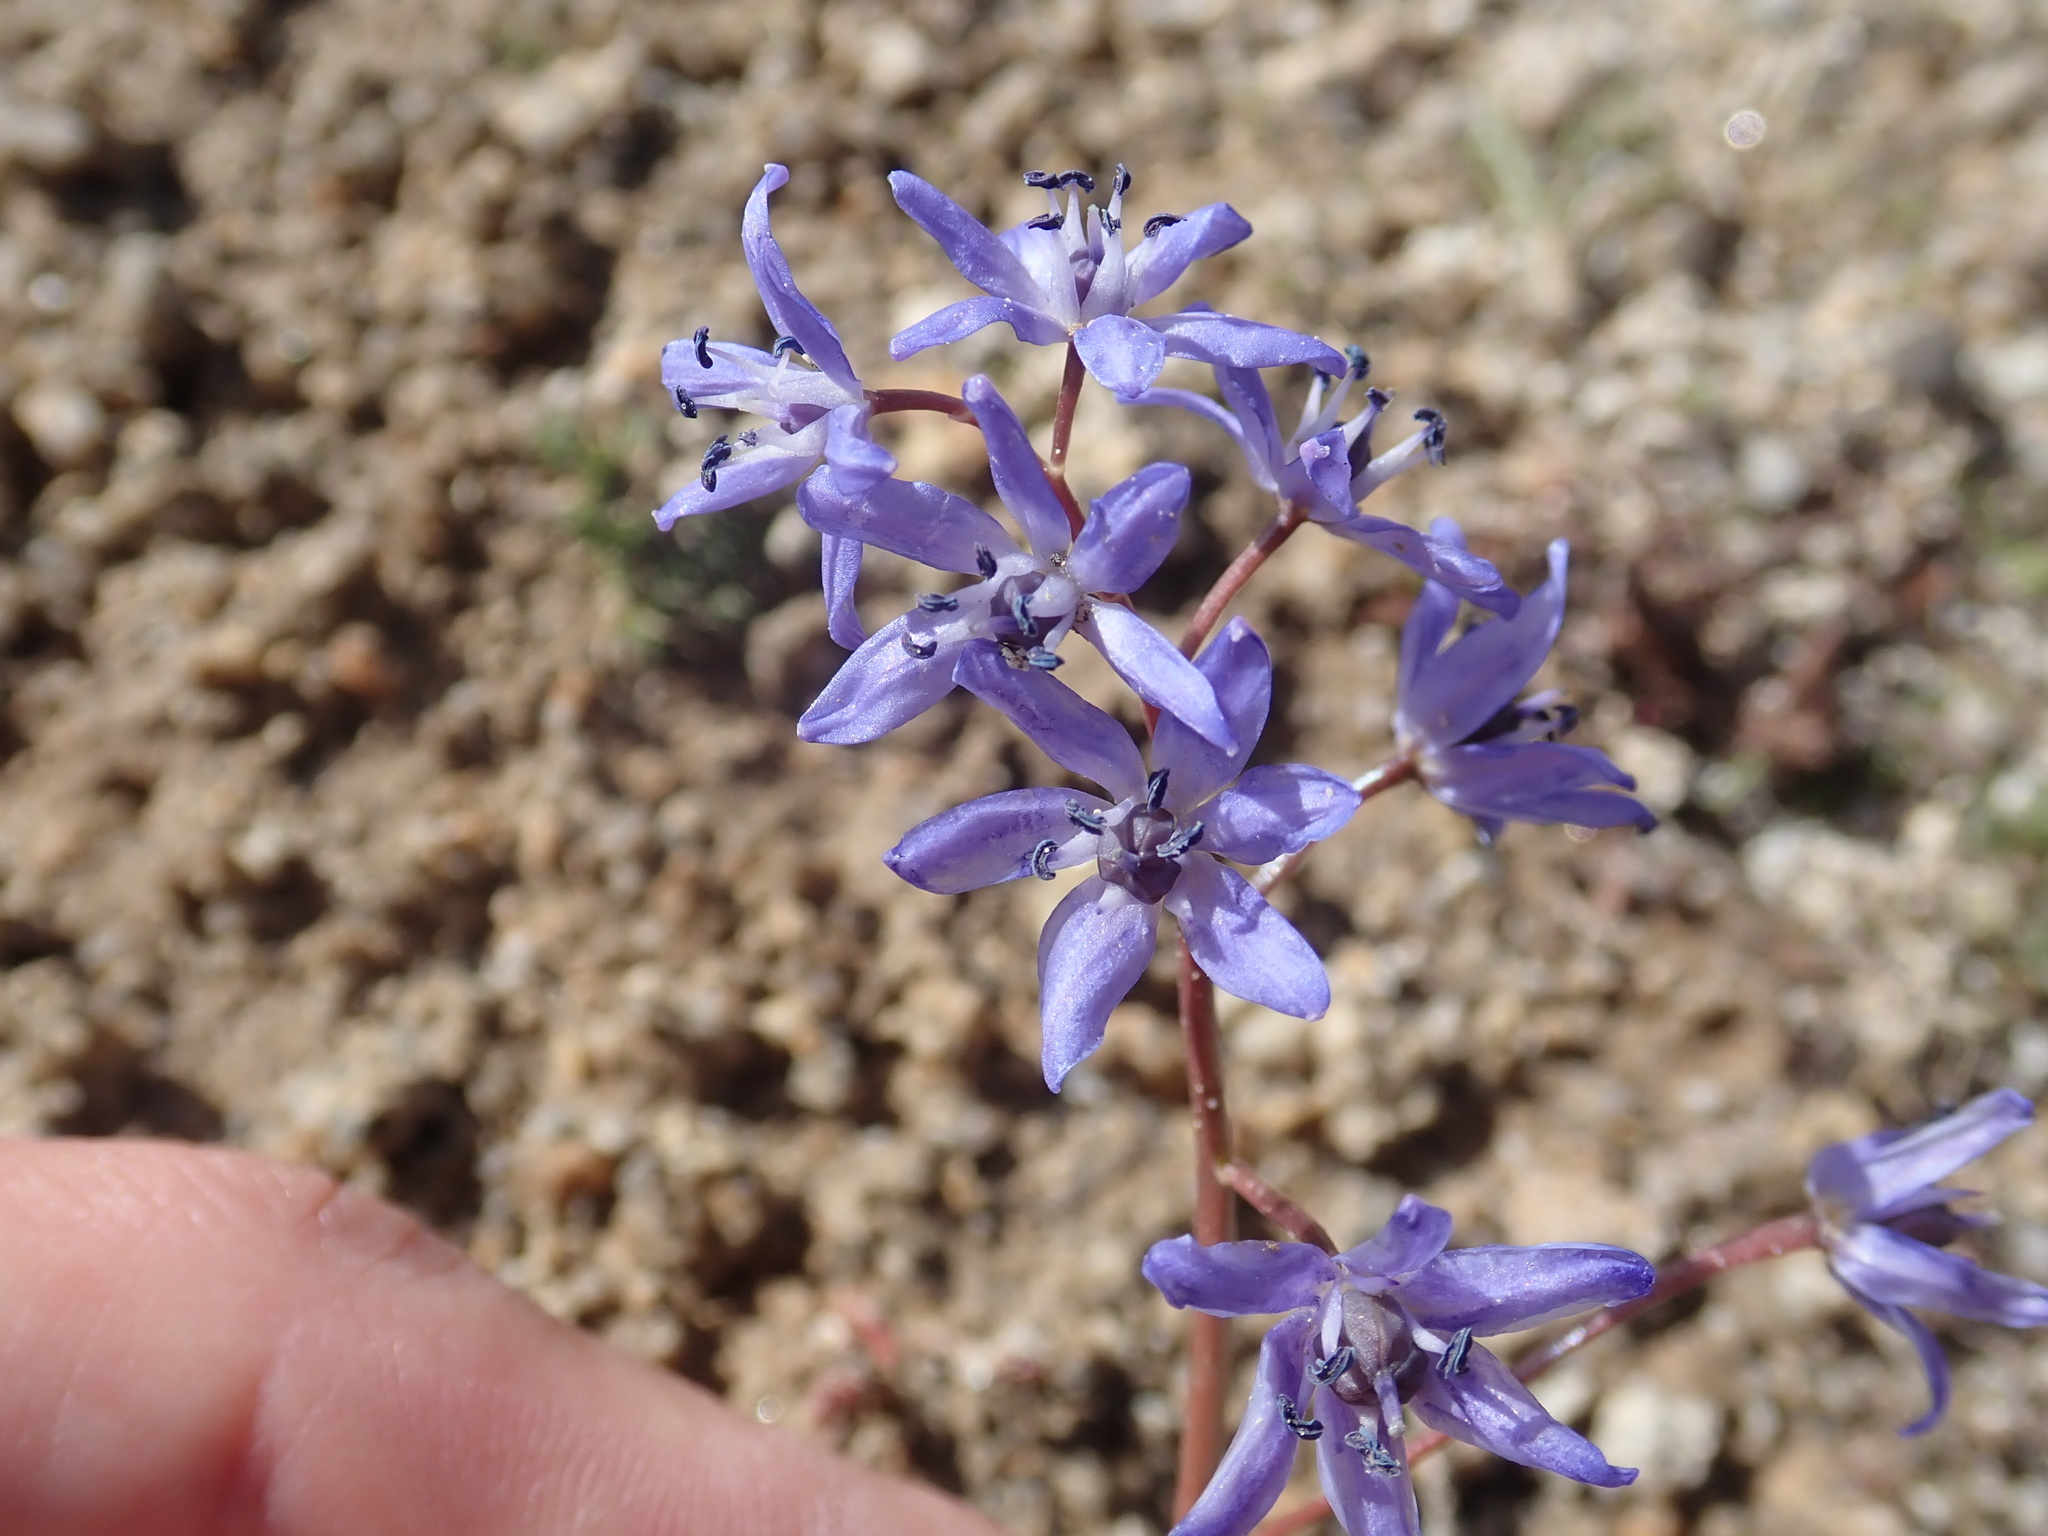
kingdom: Plantae
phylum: Tracheophyta
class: Liliopsida
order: Asparagales
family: Asparagaceae
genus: Scilla
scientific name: Scilla bifolia
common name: Alpine squill
